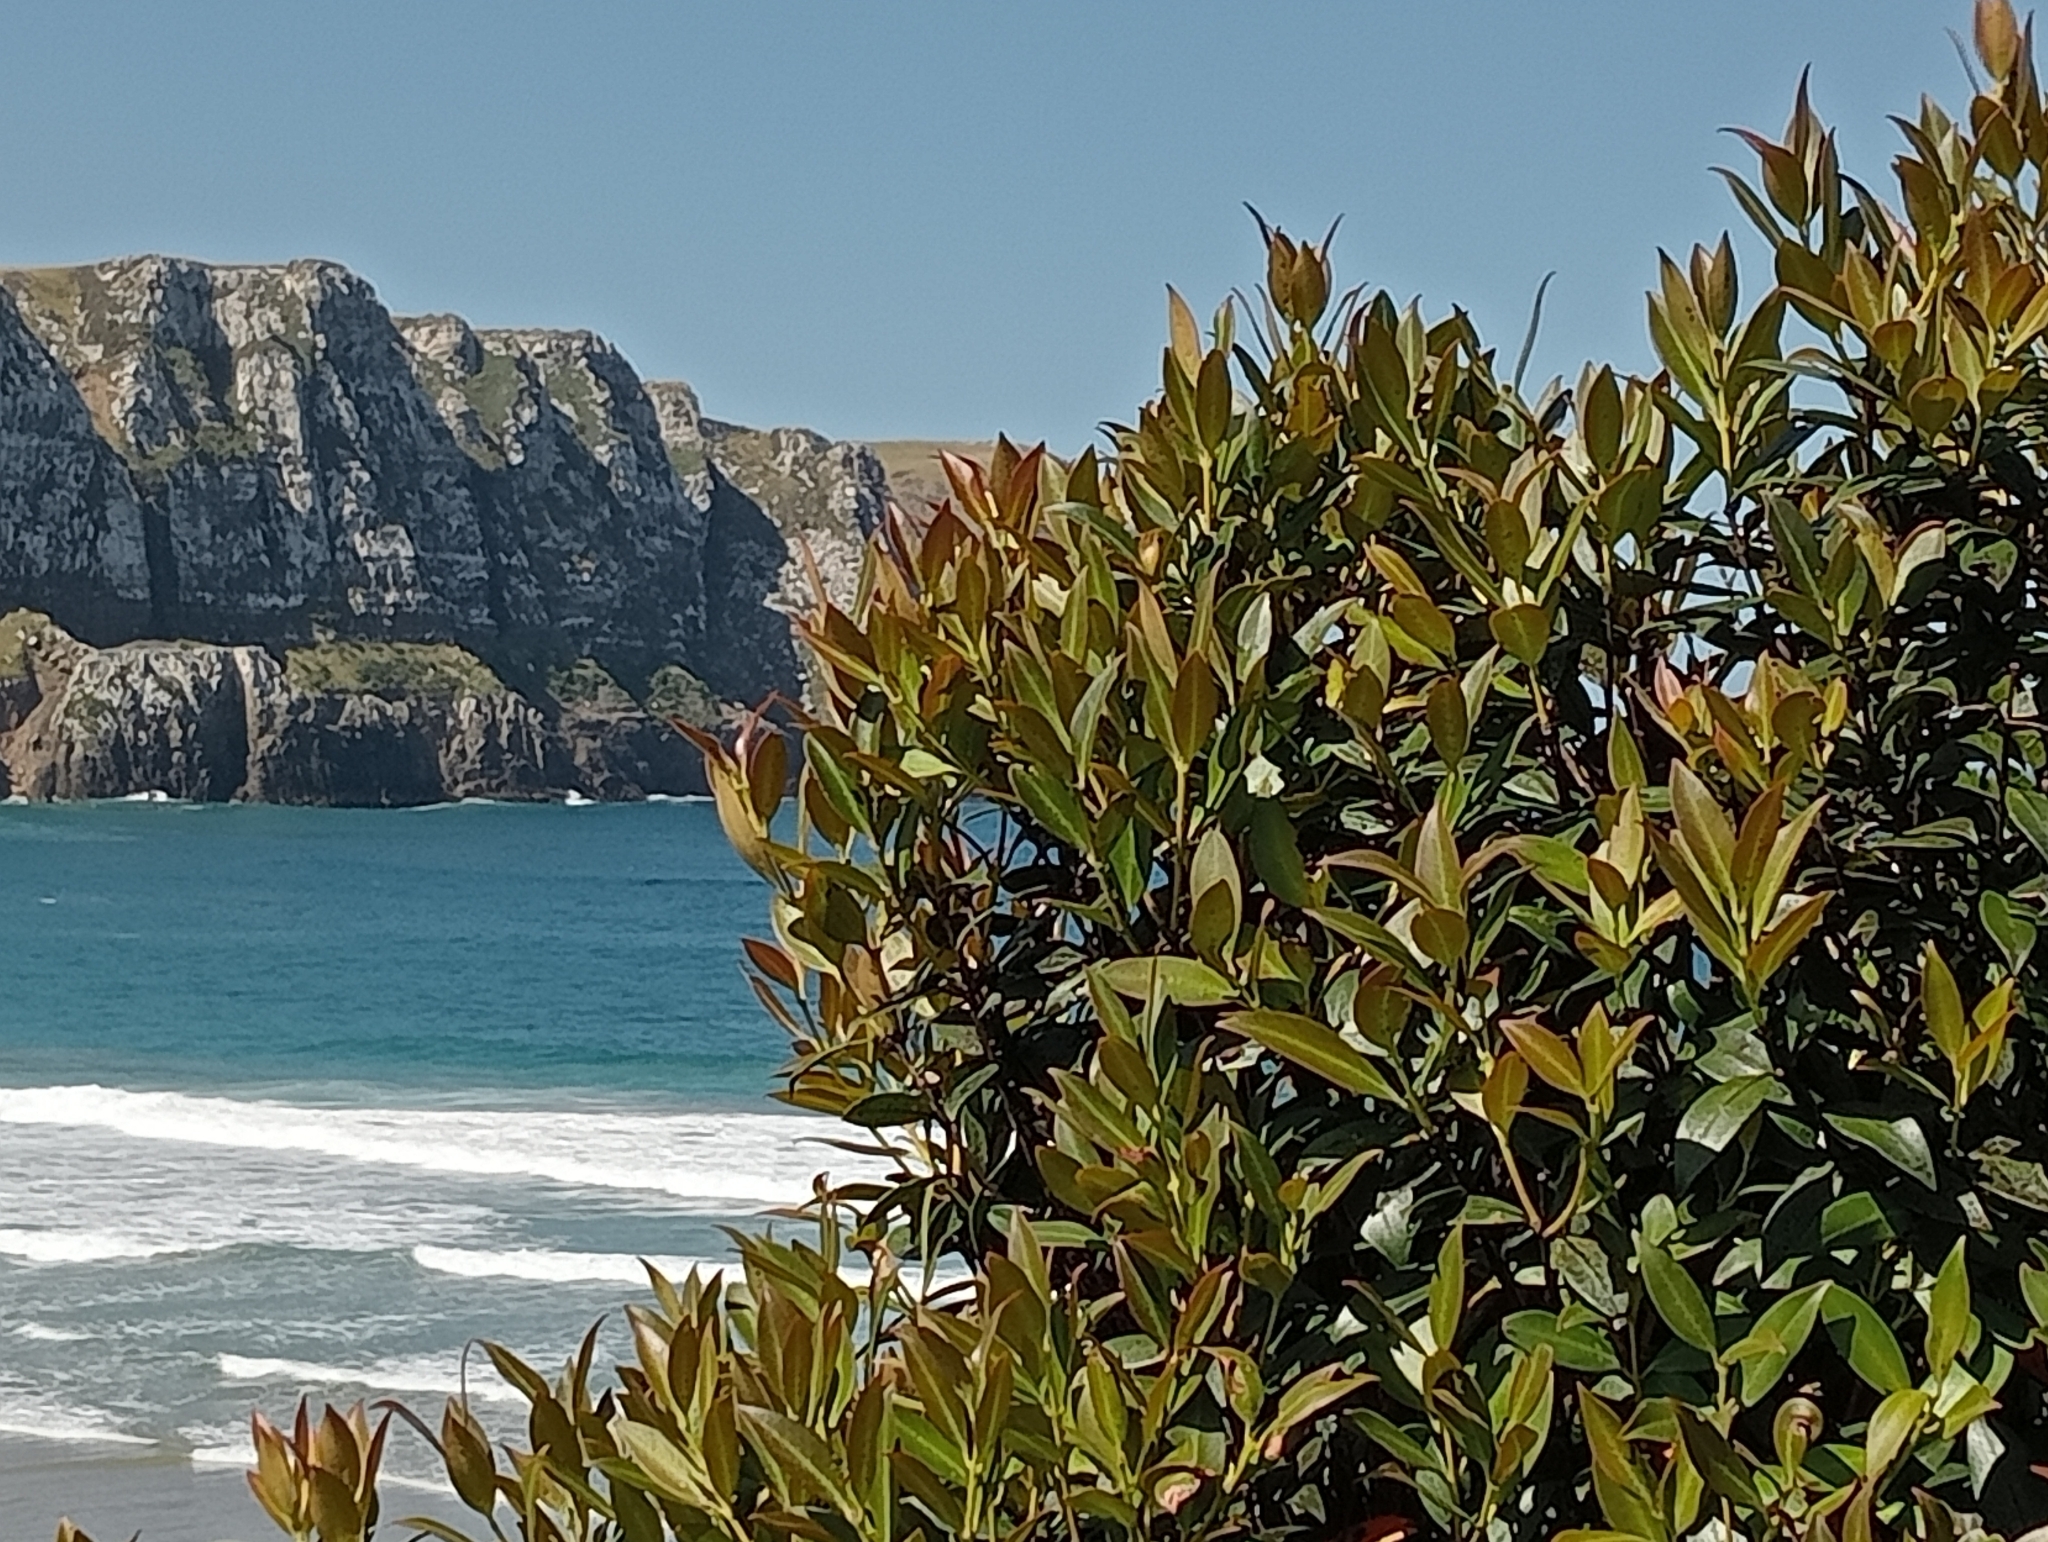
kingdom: Plantae
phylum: Tracheophyta
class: Magnoliopsida
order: Myrtales
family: Myrtaceae
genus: Metrosideros
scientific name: Metrosideros umbellata
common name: Southern rata
